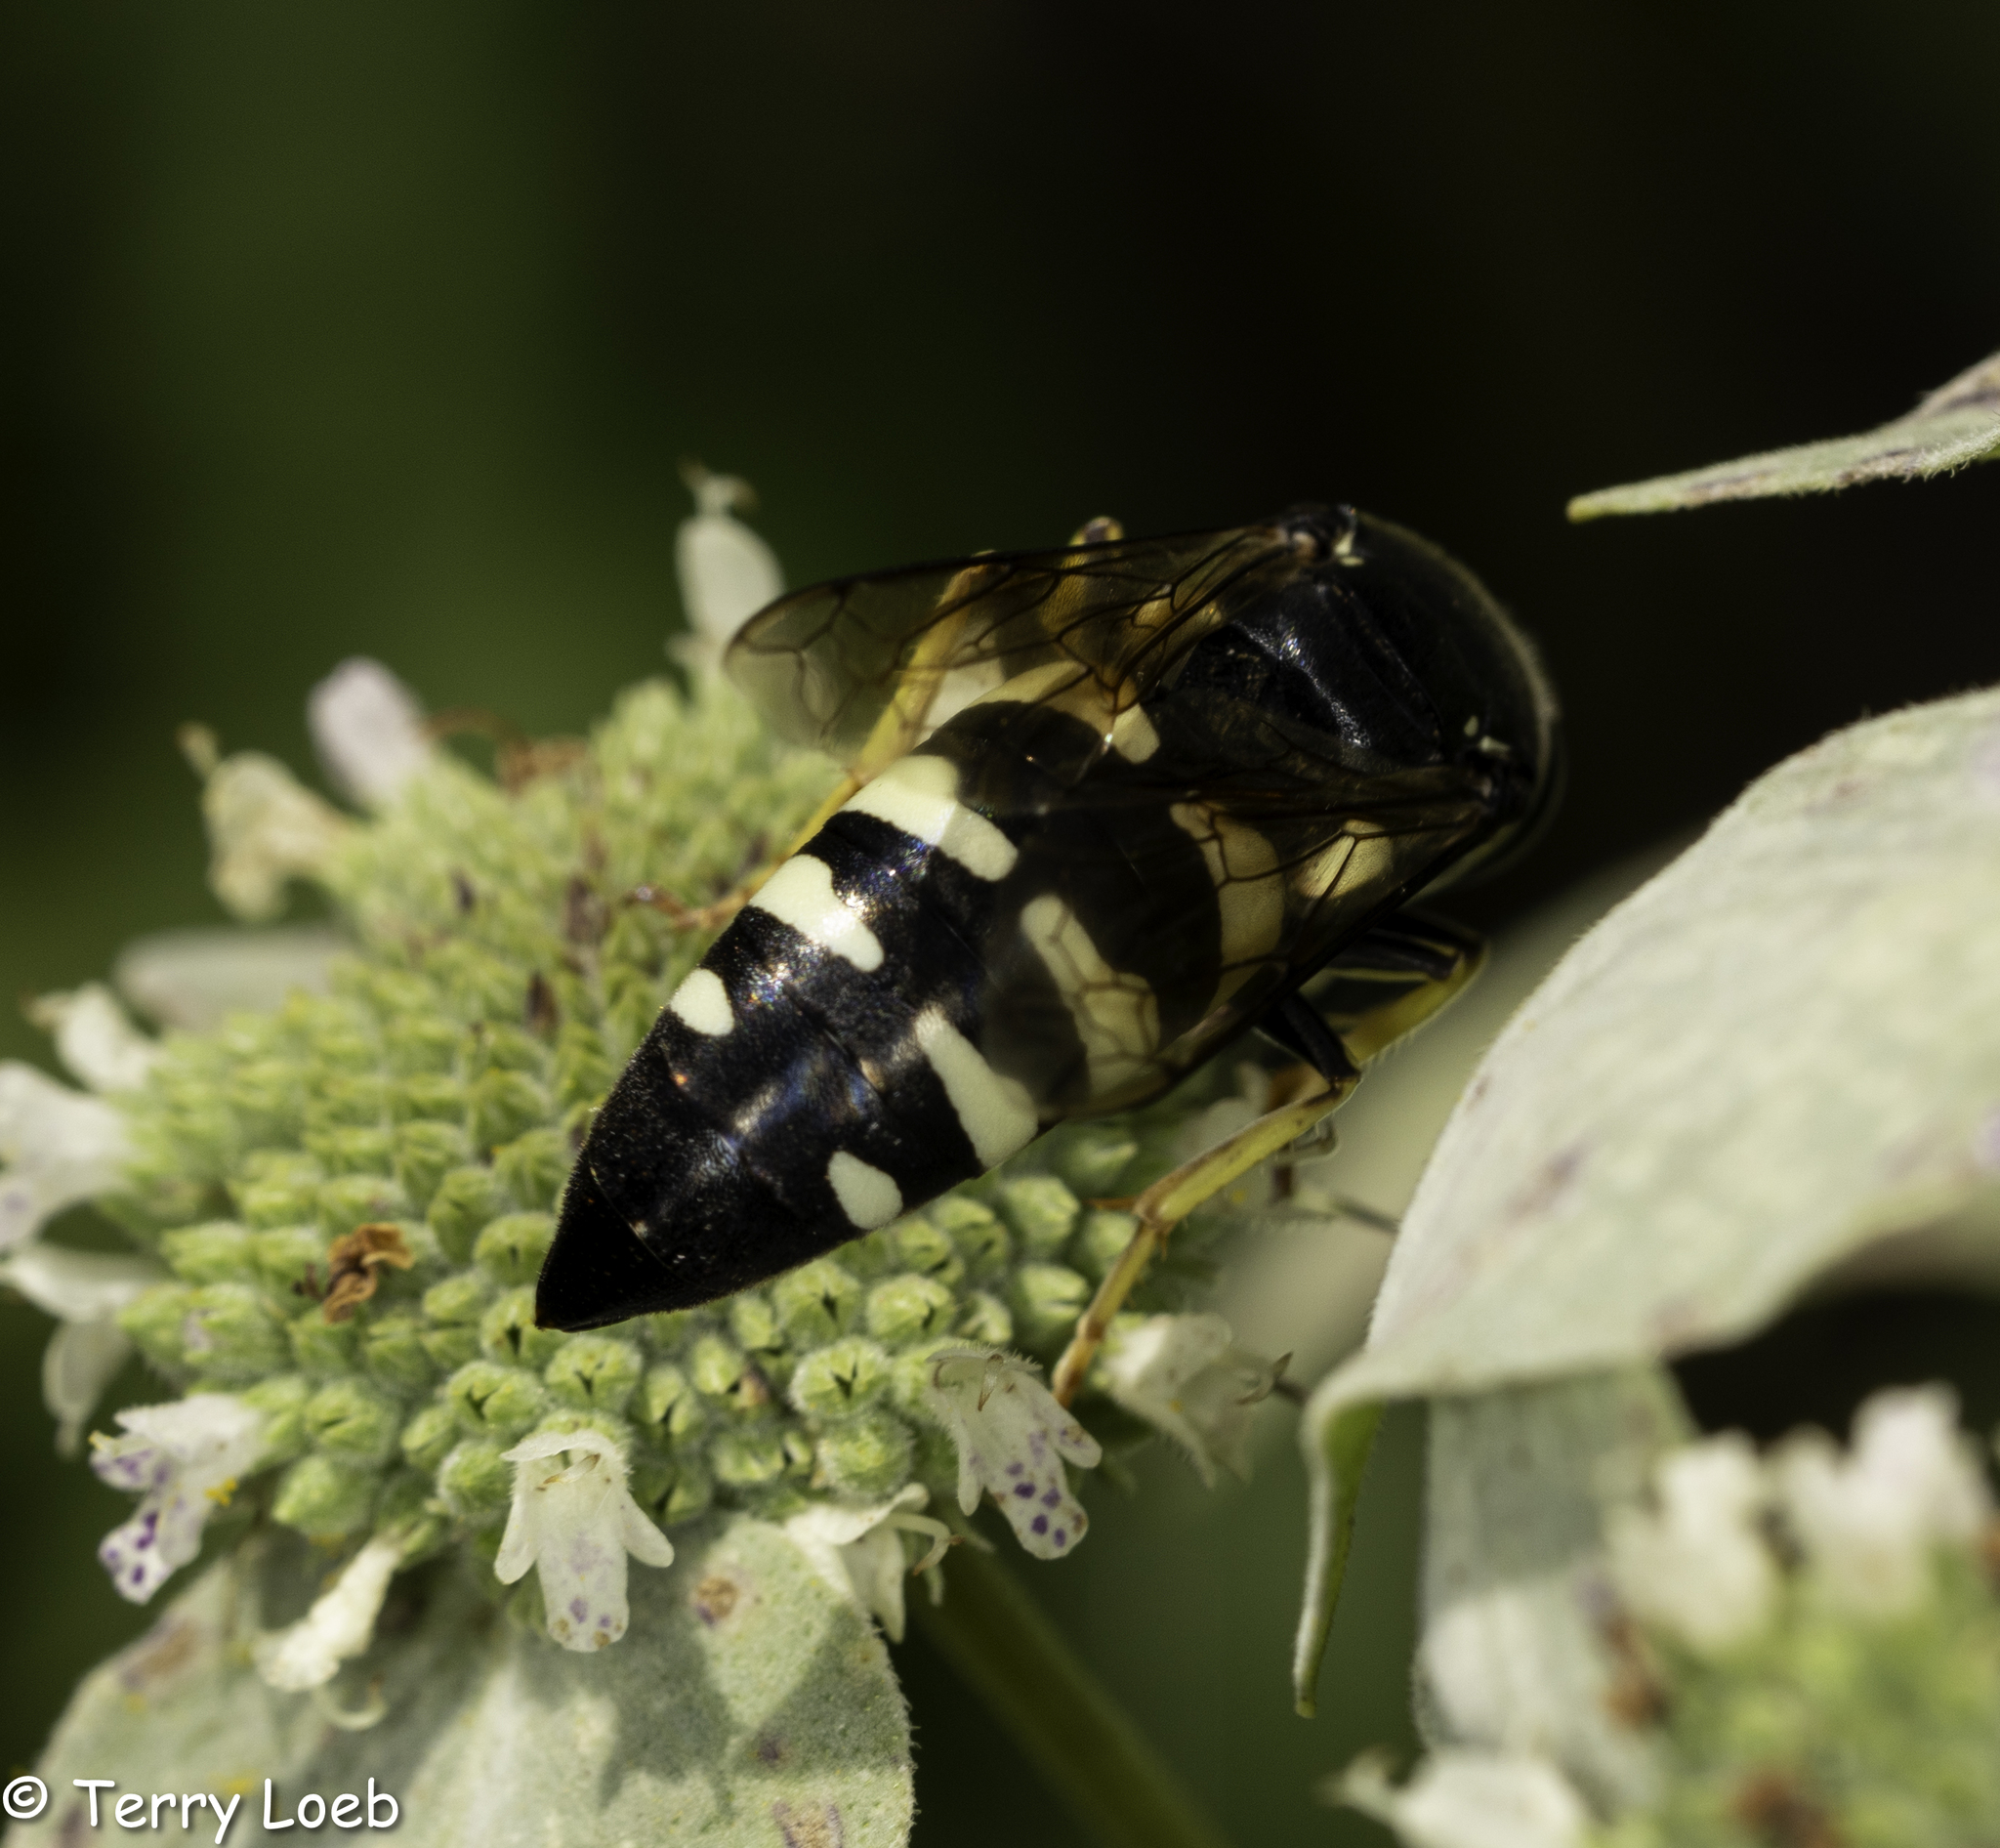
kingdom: Animalia
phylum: Arthropoda
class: Insecta
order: Hymenoptera
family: Crabronidae
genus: Bicyrtes
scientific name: Bicyrtes quadrifasciatus
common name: Four-banded stink bug hunter wasp
